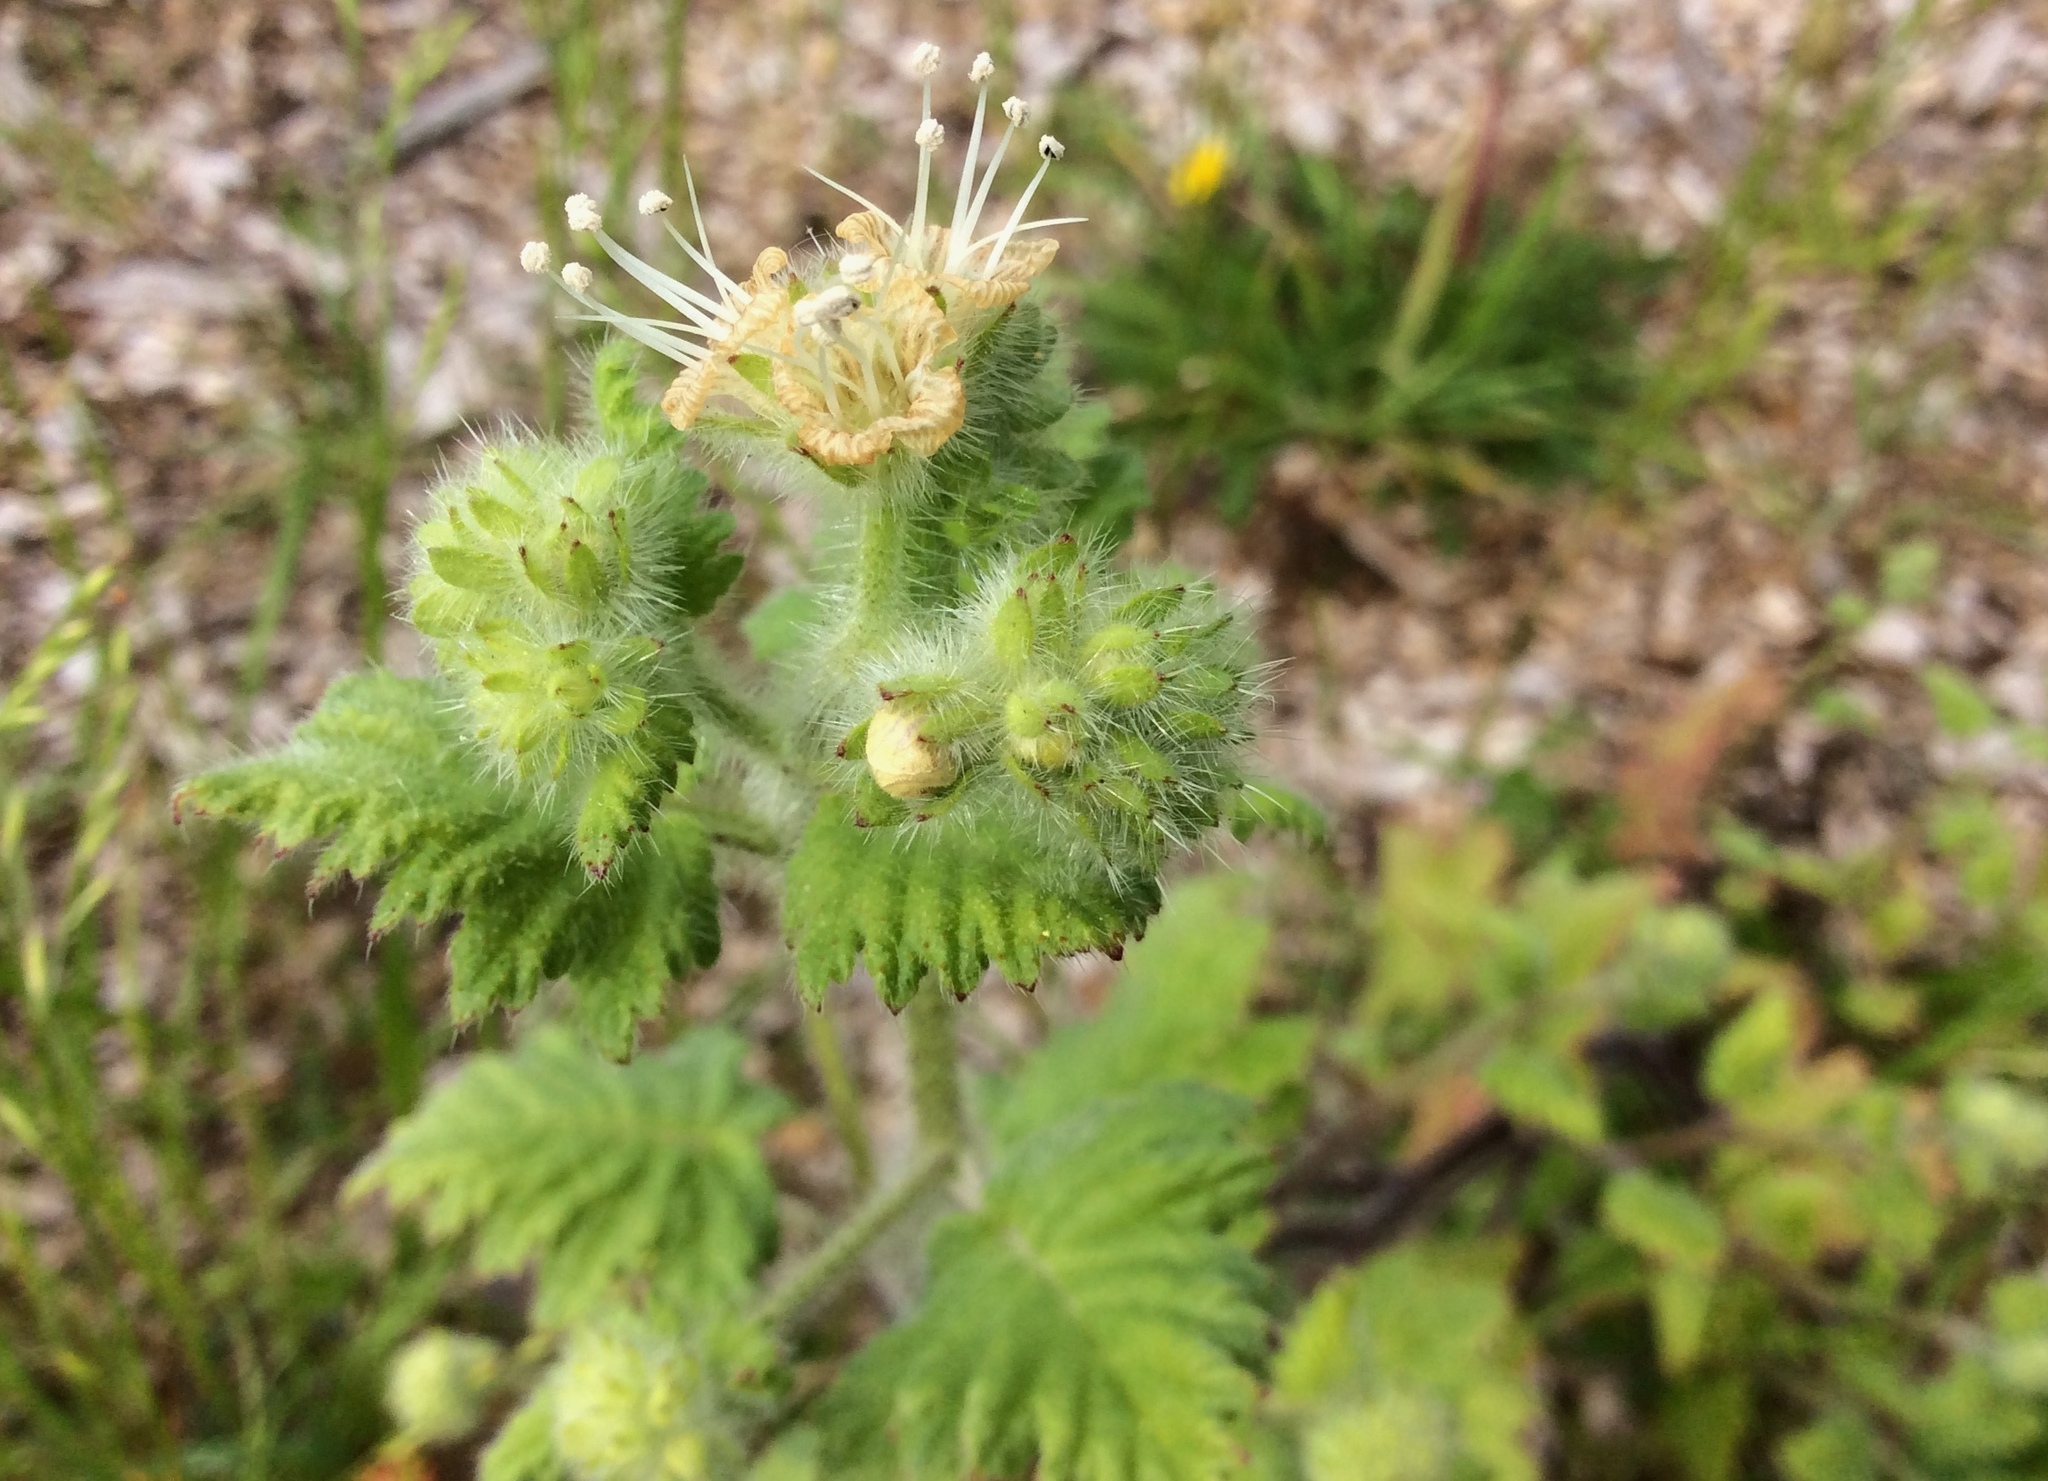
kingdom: Plantae
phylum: Tracheophyta
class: Magnoliopsida
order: Boraginales
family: Hydrophyllaceae
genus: Phacelia
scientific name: Phacelia malvifolia
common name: Mallow-leaf phacelia
